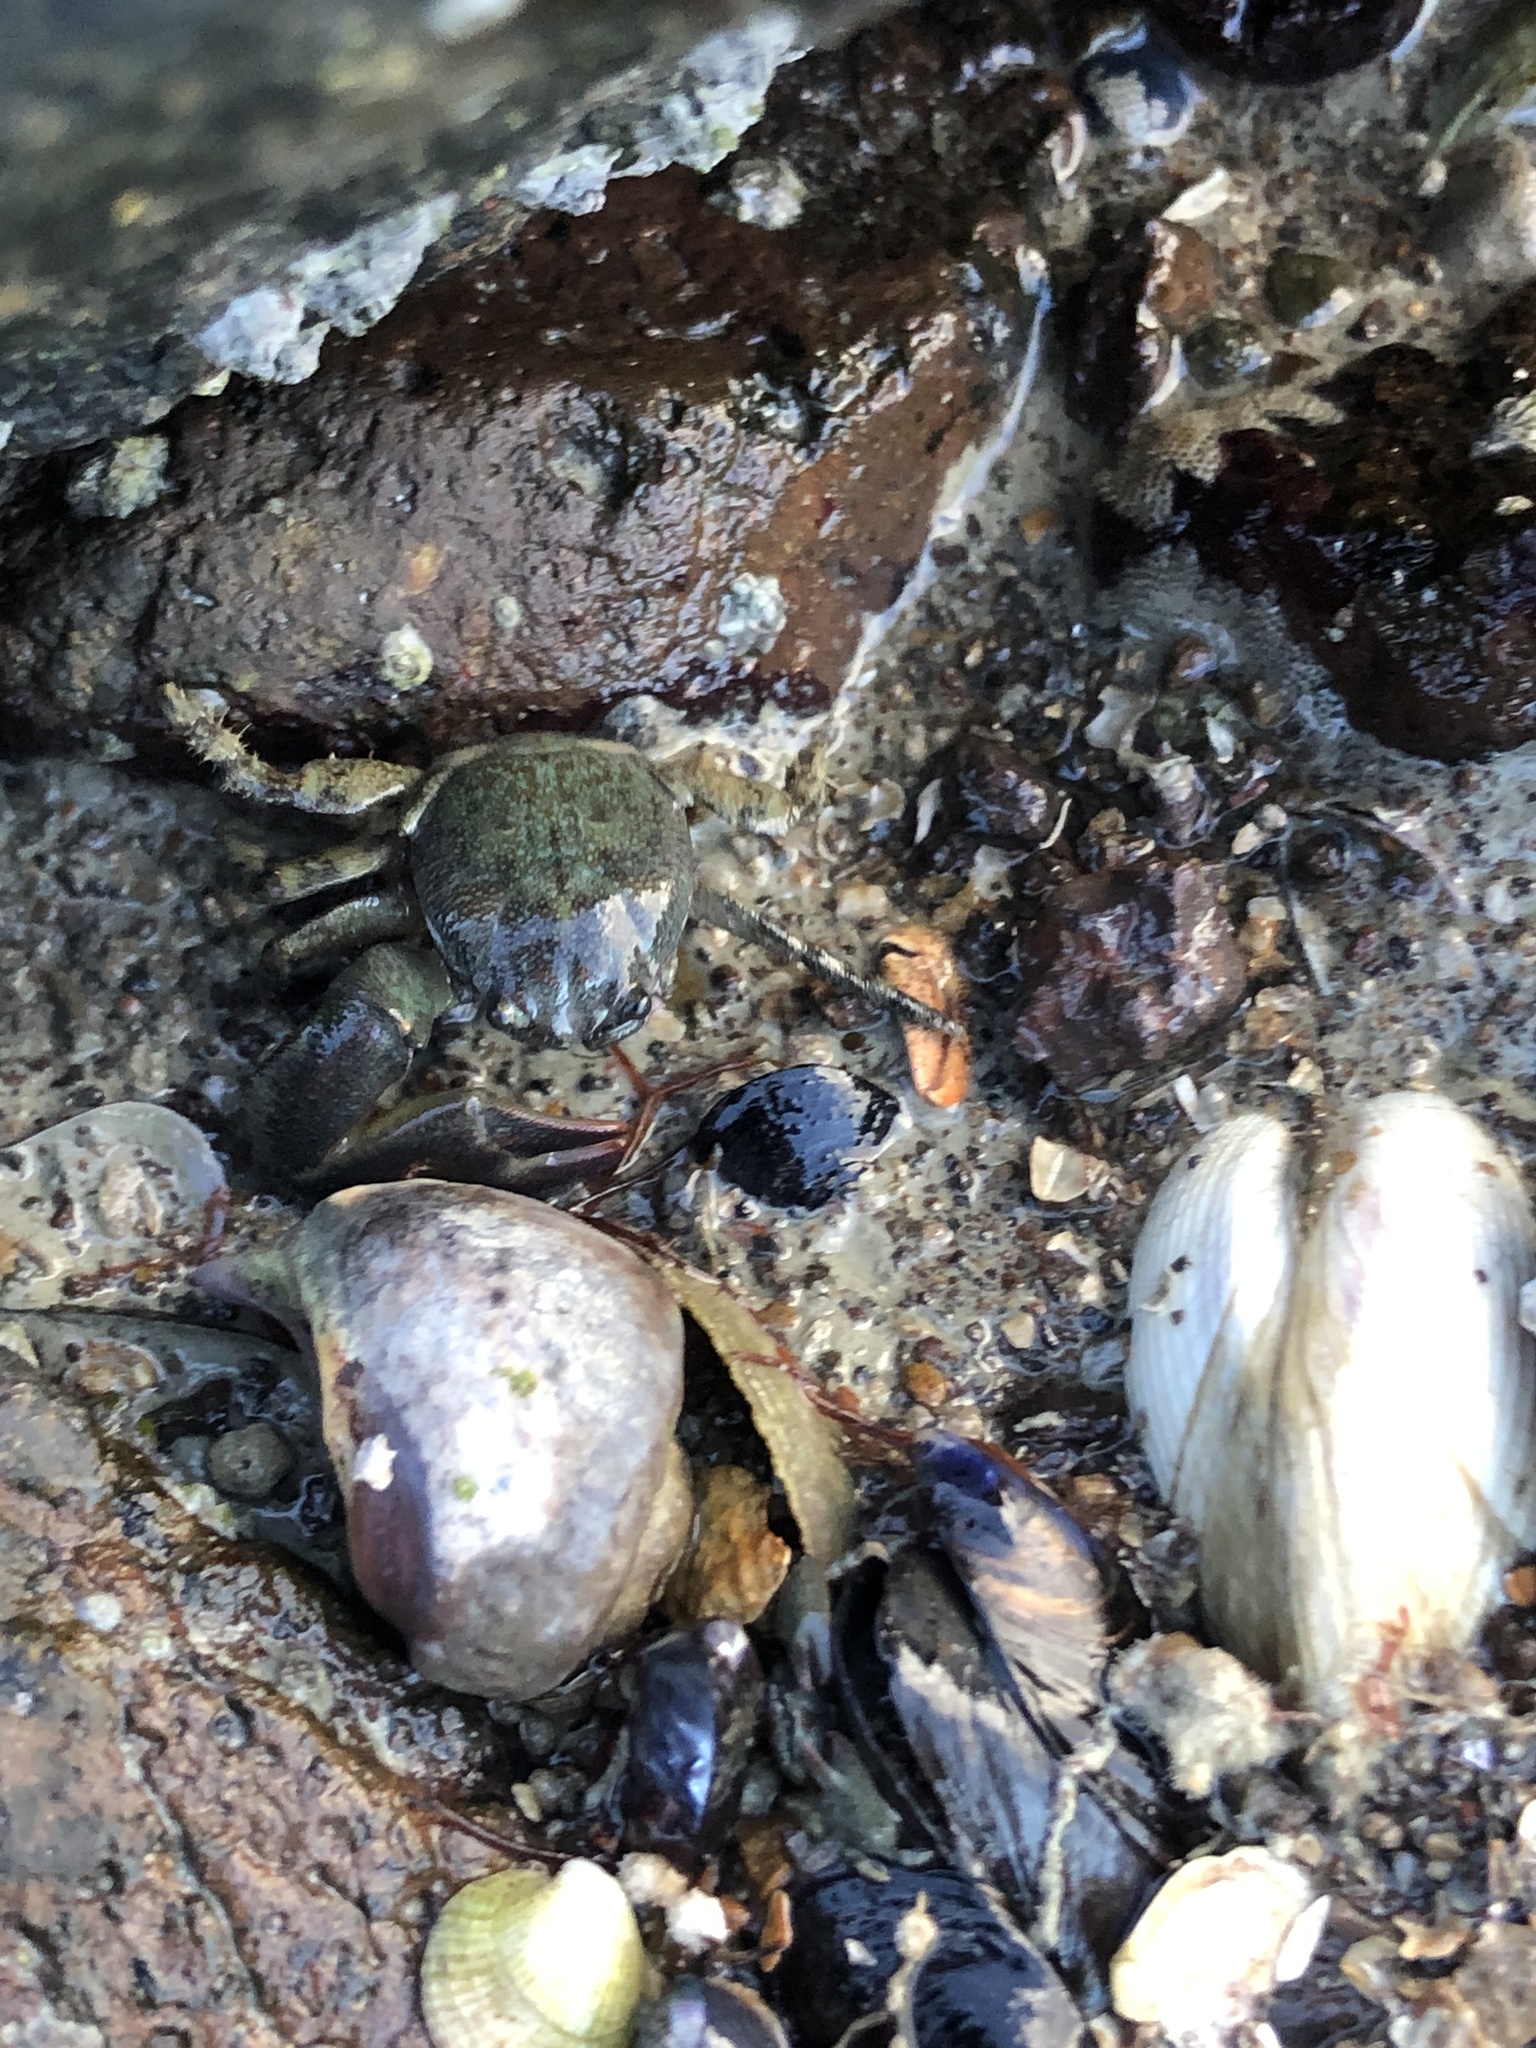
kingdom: Animalia
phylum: Arthropoda
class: Malacostraca
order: Decapoda
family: Porcellanidae
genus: Petrolisthes
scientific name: Petrolisthes elongatus
